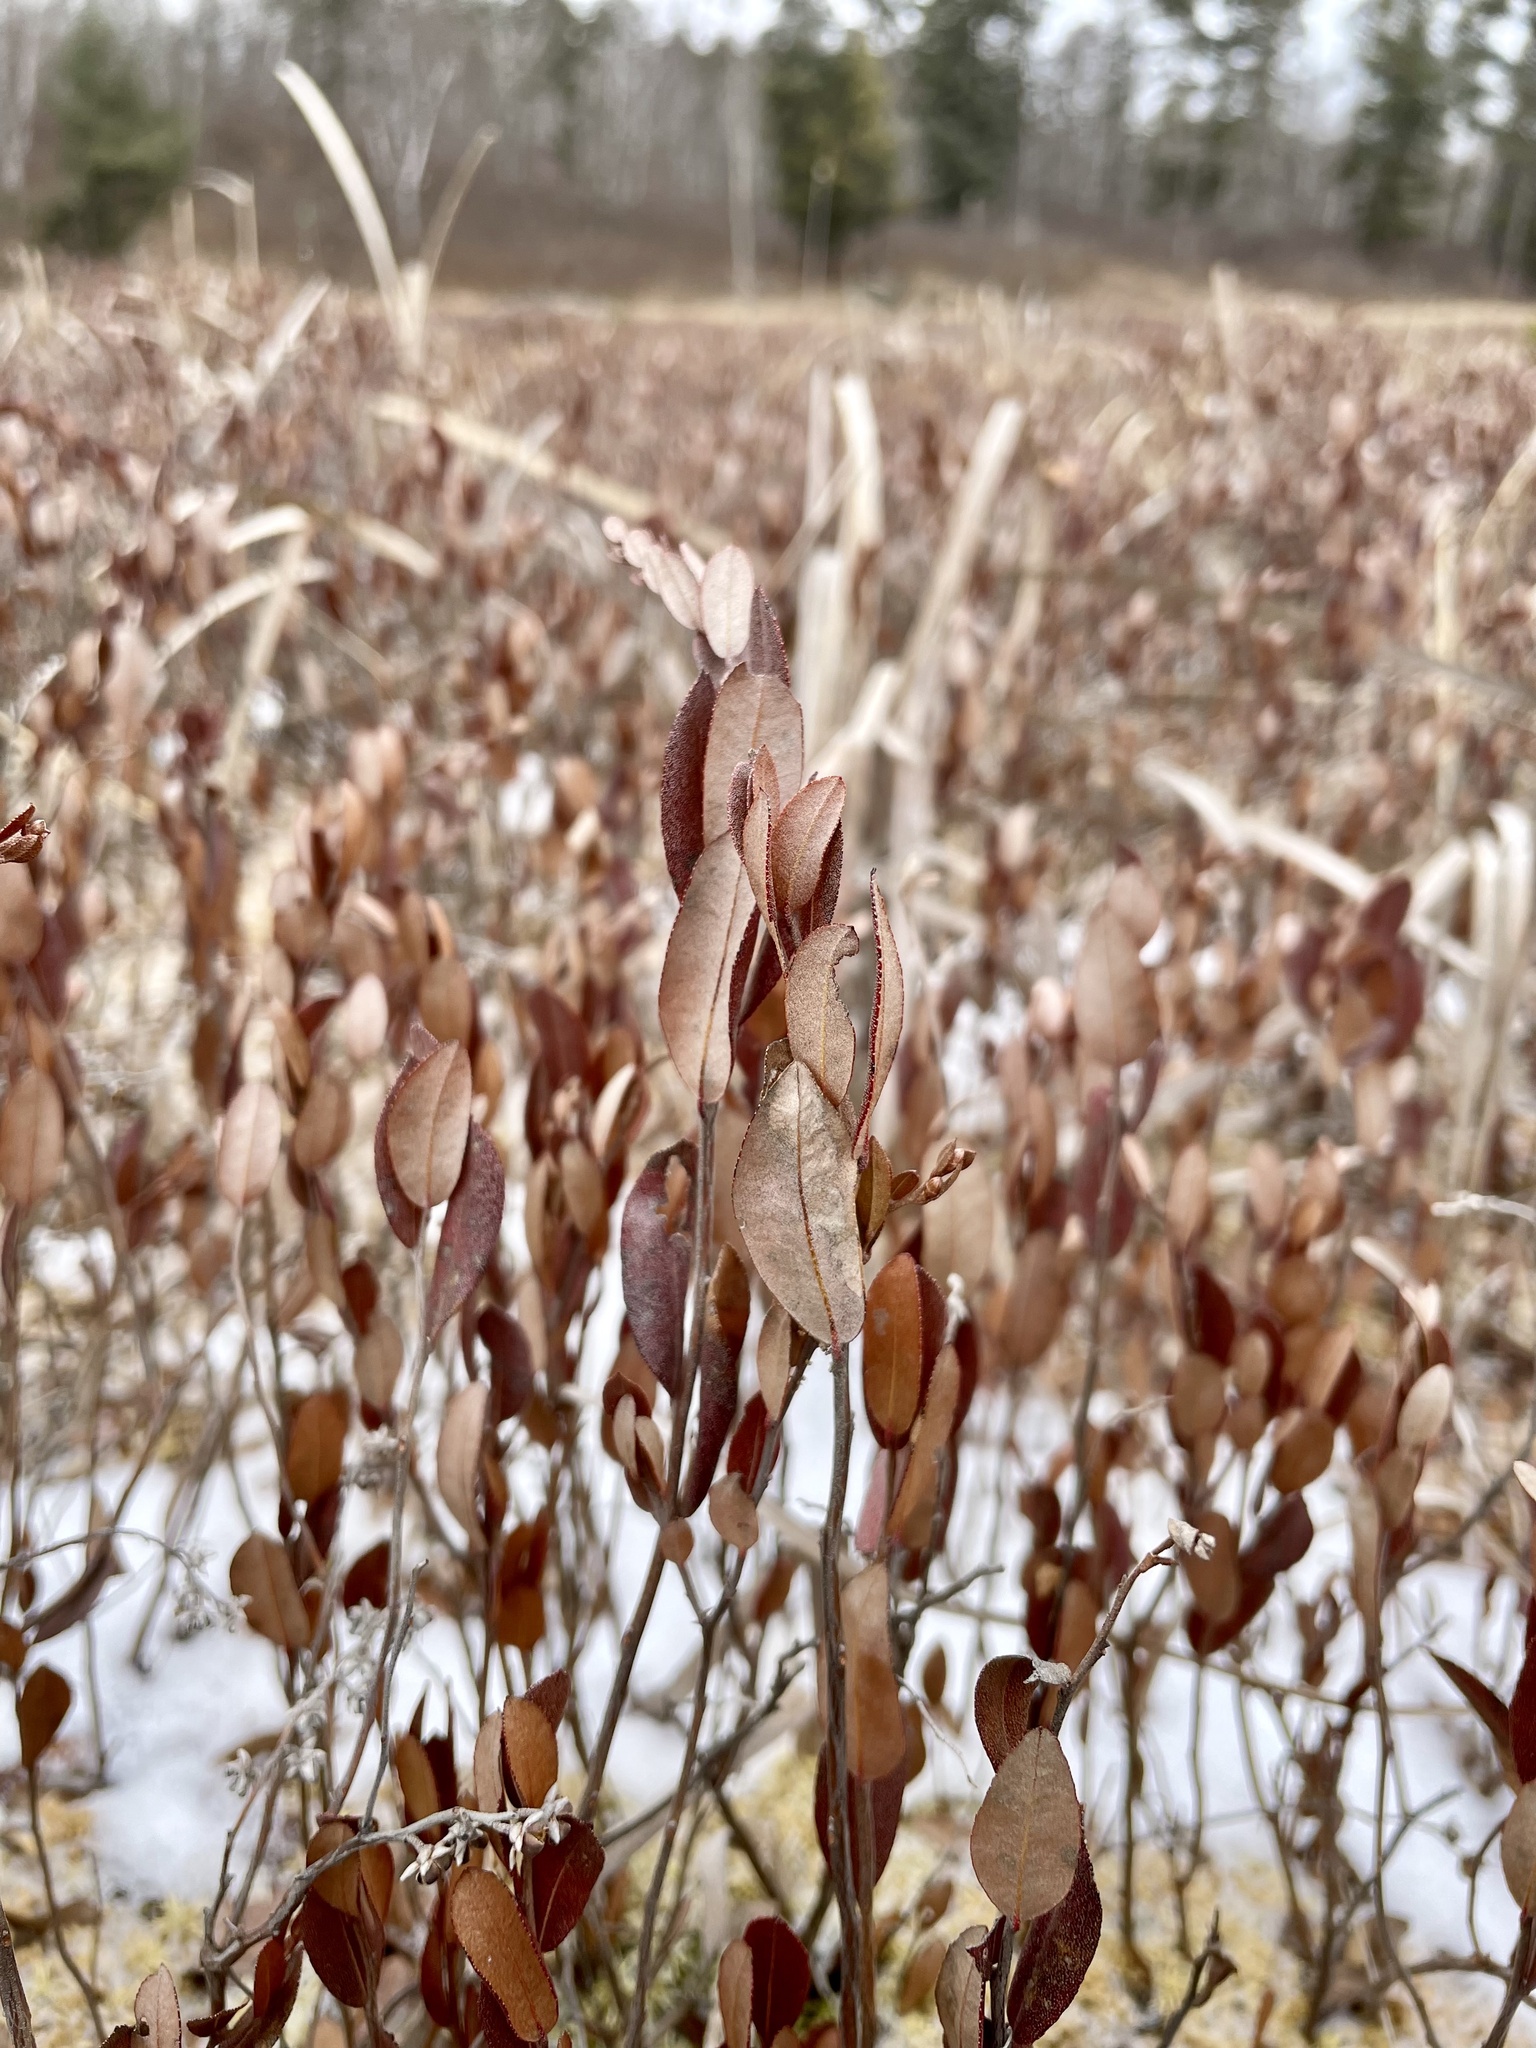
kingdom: Plantae
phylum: Tracheophyta
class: Magnoliopsida
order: Ericales
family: Ericaceae
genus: Chamaedaphne
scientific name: Chamaedaphne calyculata
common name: Leatherleaf
